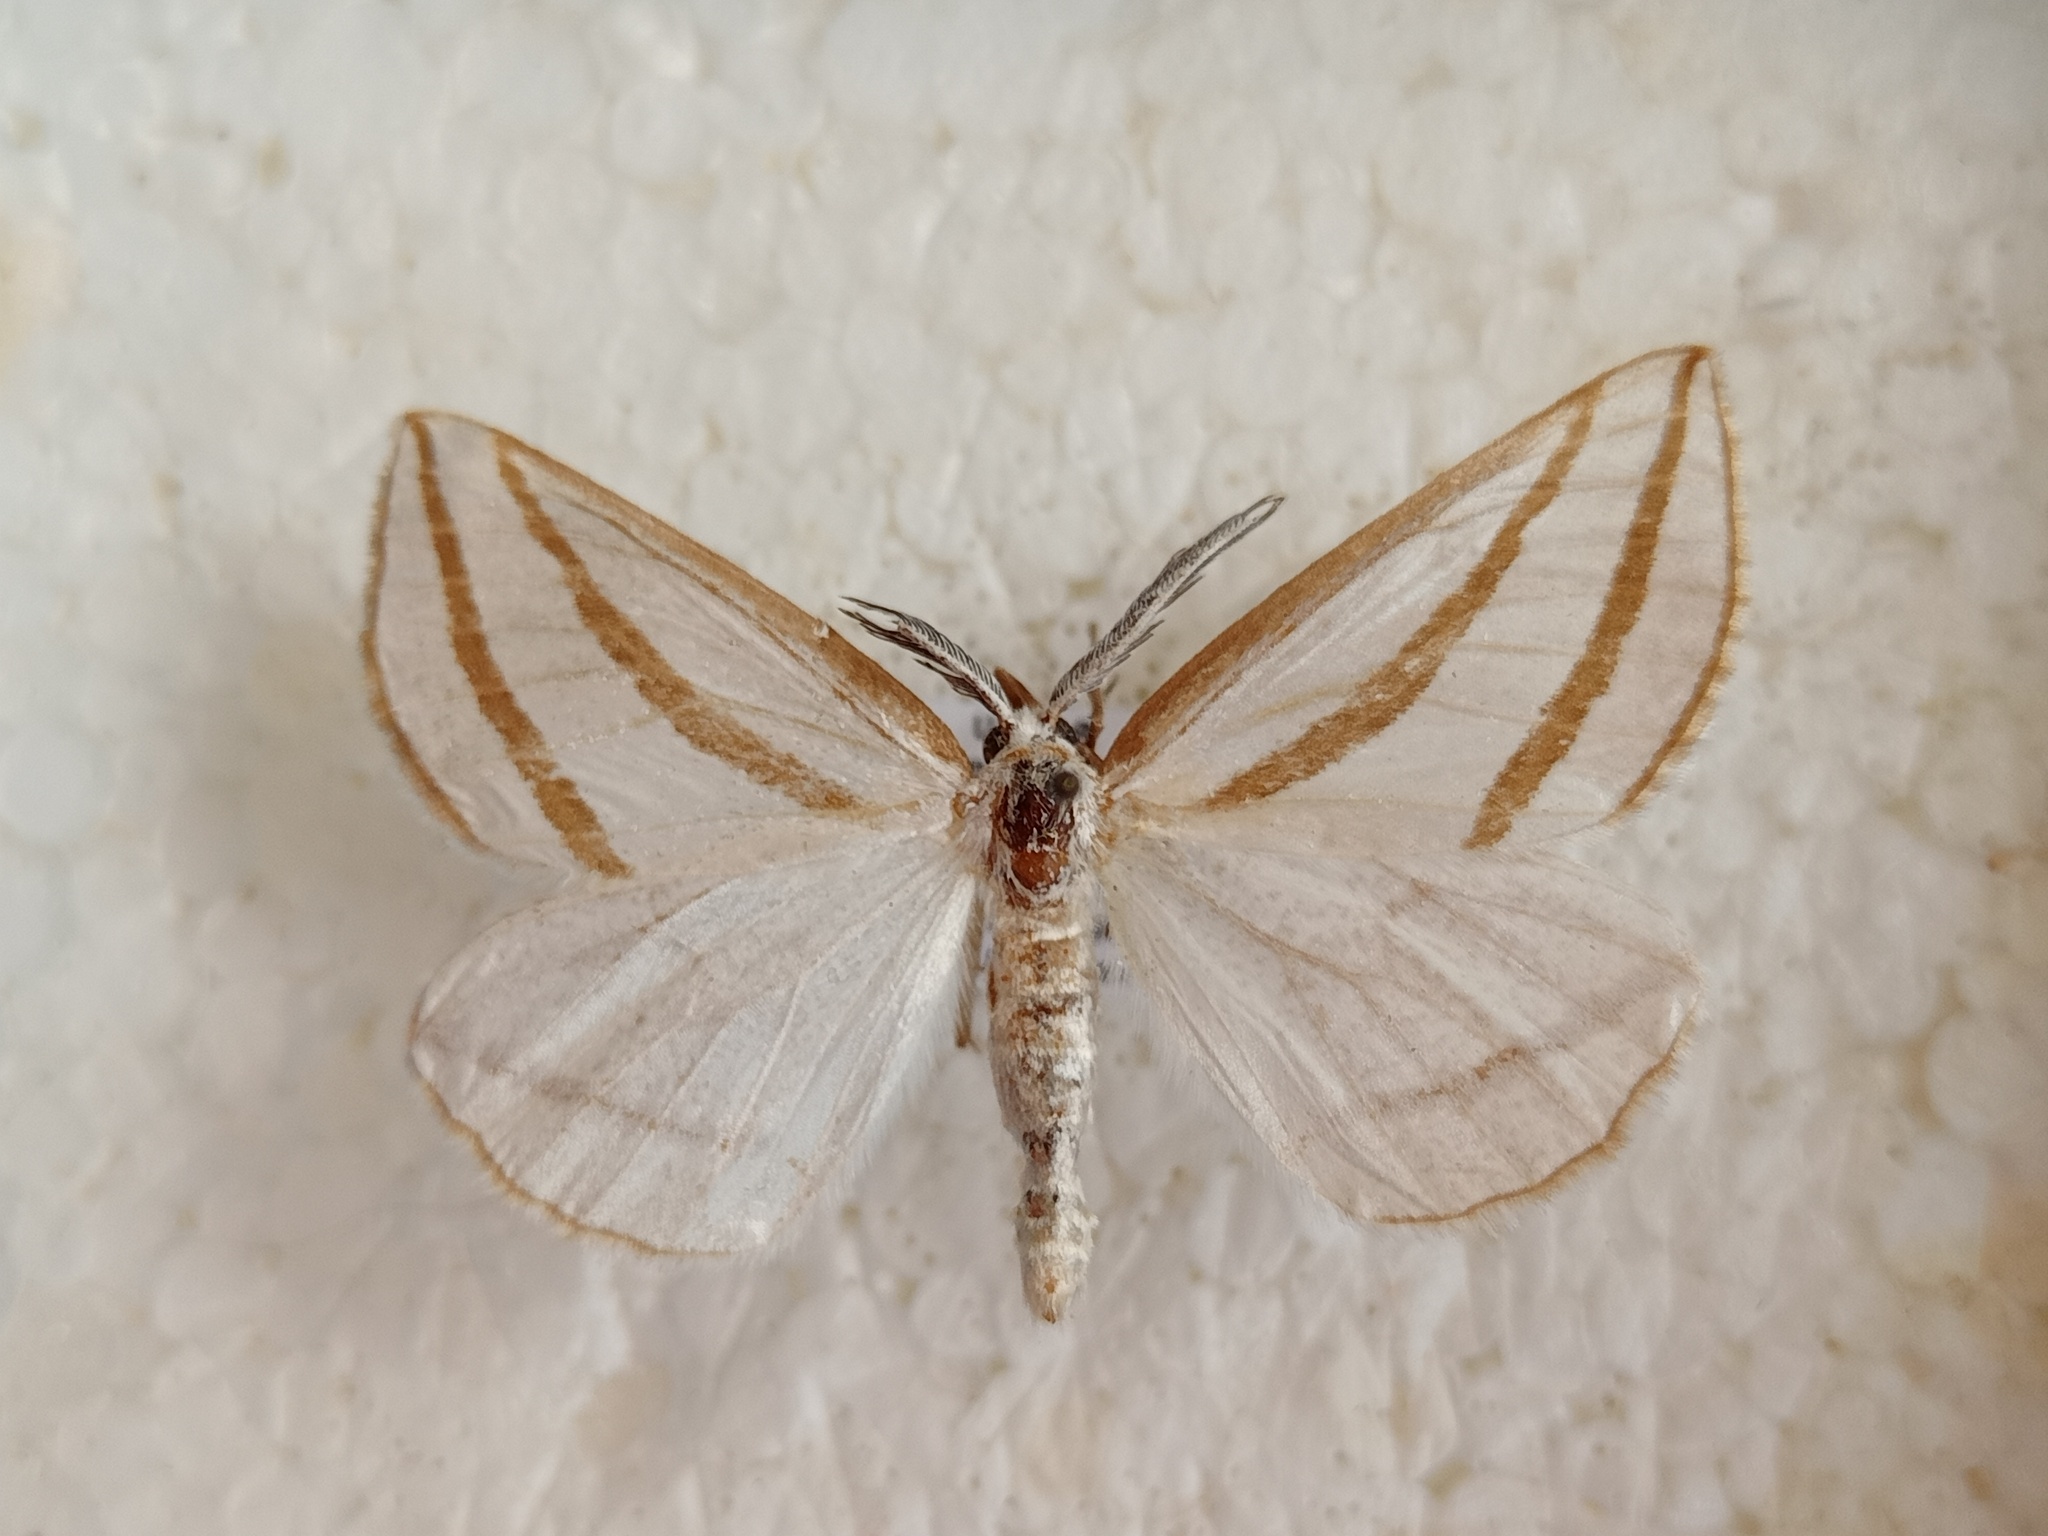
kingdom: Animalia
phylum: Arthropoda
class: Insecta
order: Lepidoptera
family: Geometridae
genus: Megaspilates
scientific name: Megaspilates mundataria
